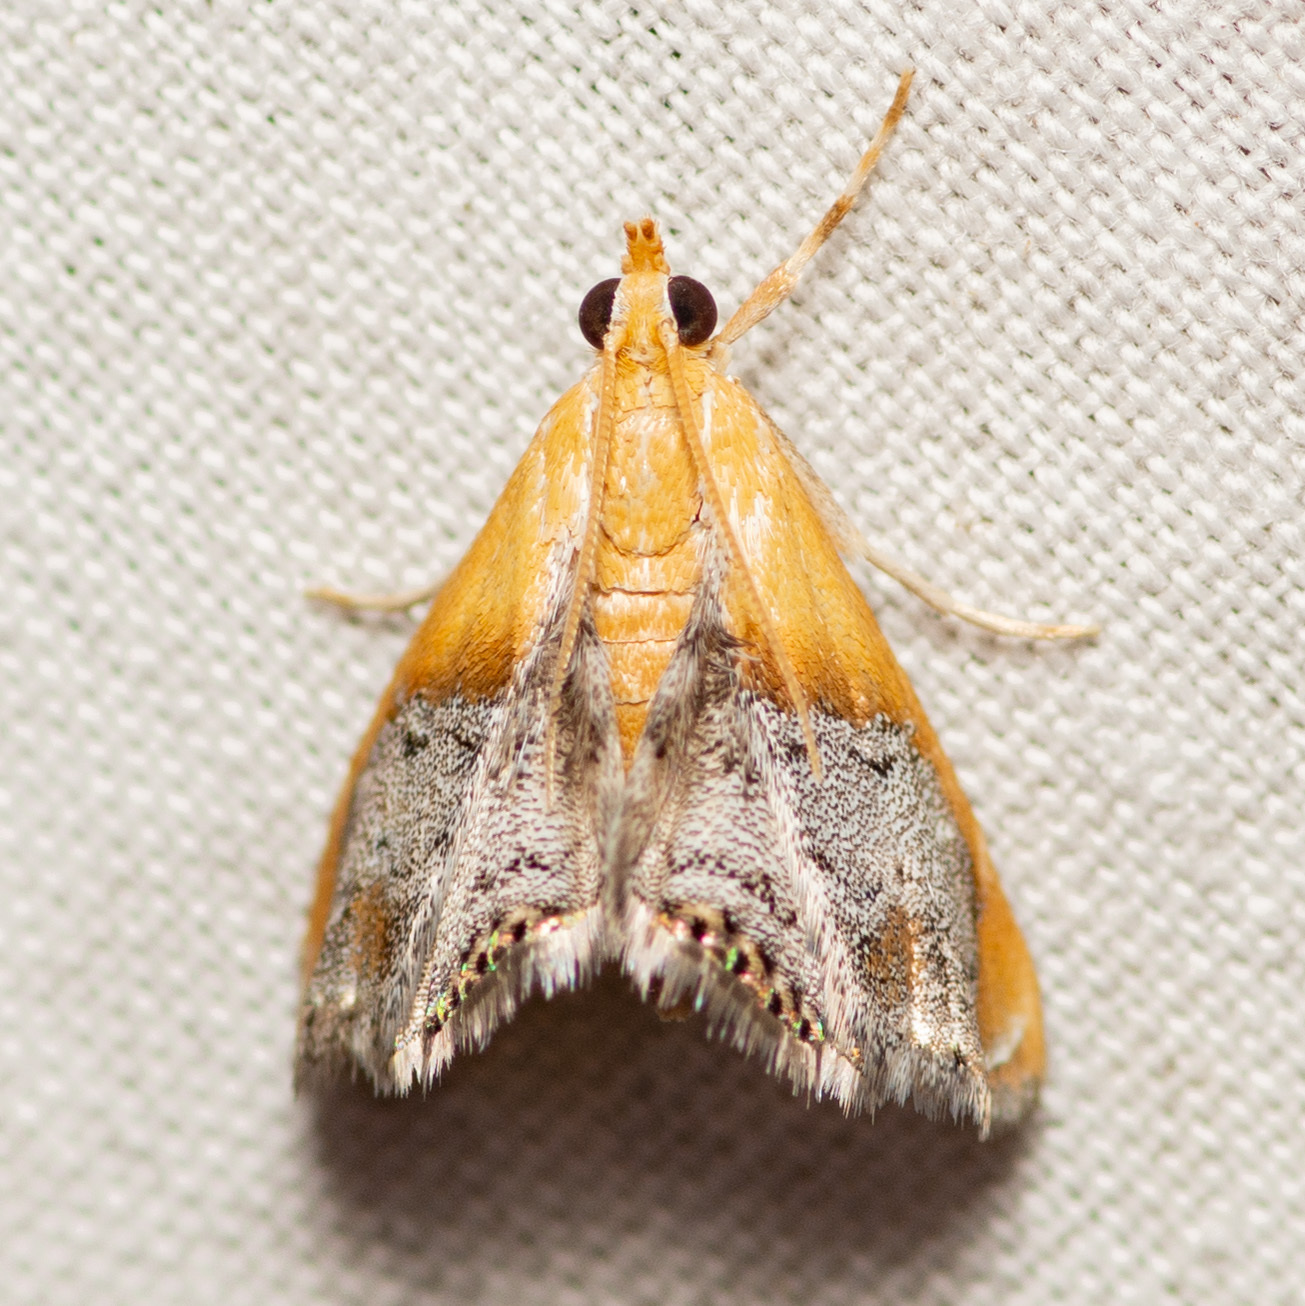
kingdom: Animalia
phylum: Arthropoda
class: Insecta
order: Lepidoptera
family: Crambidae
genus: Chalcoela
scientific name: Chalcoela iphitalis
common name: Sooty-winged chalcoela moth
